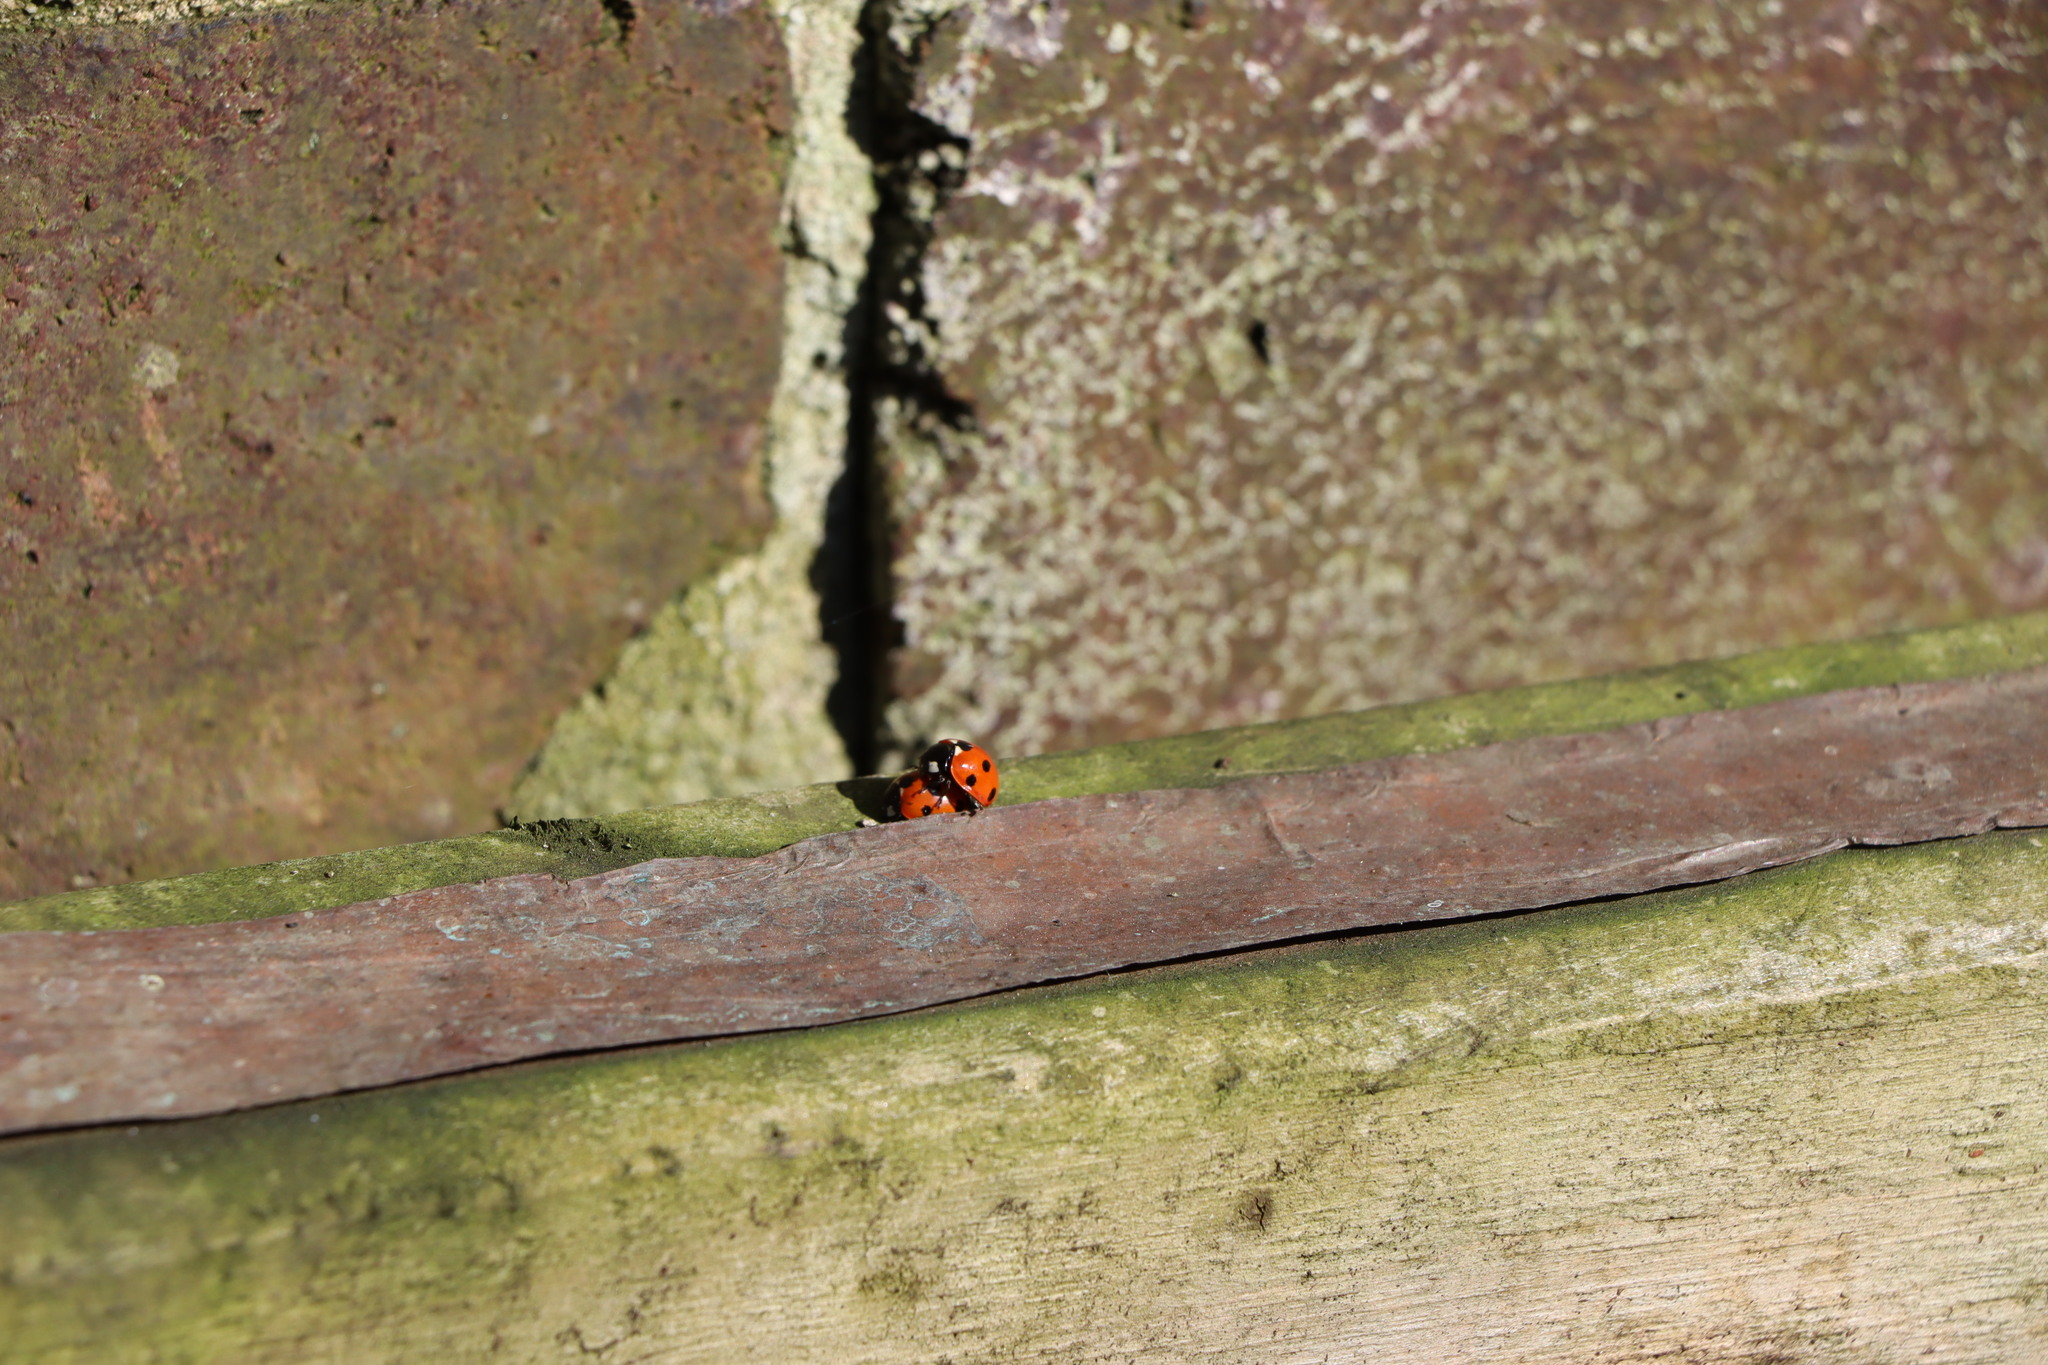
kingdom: Animalia
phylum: Arthropoda
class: Insecta
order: Coleoptera
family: Coccinellidae
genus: Coccinella
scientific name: Coccinella septempunctata
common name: Sevenspotted lady beetle
